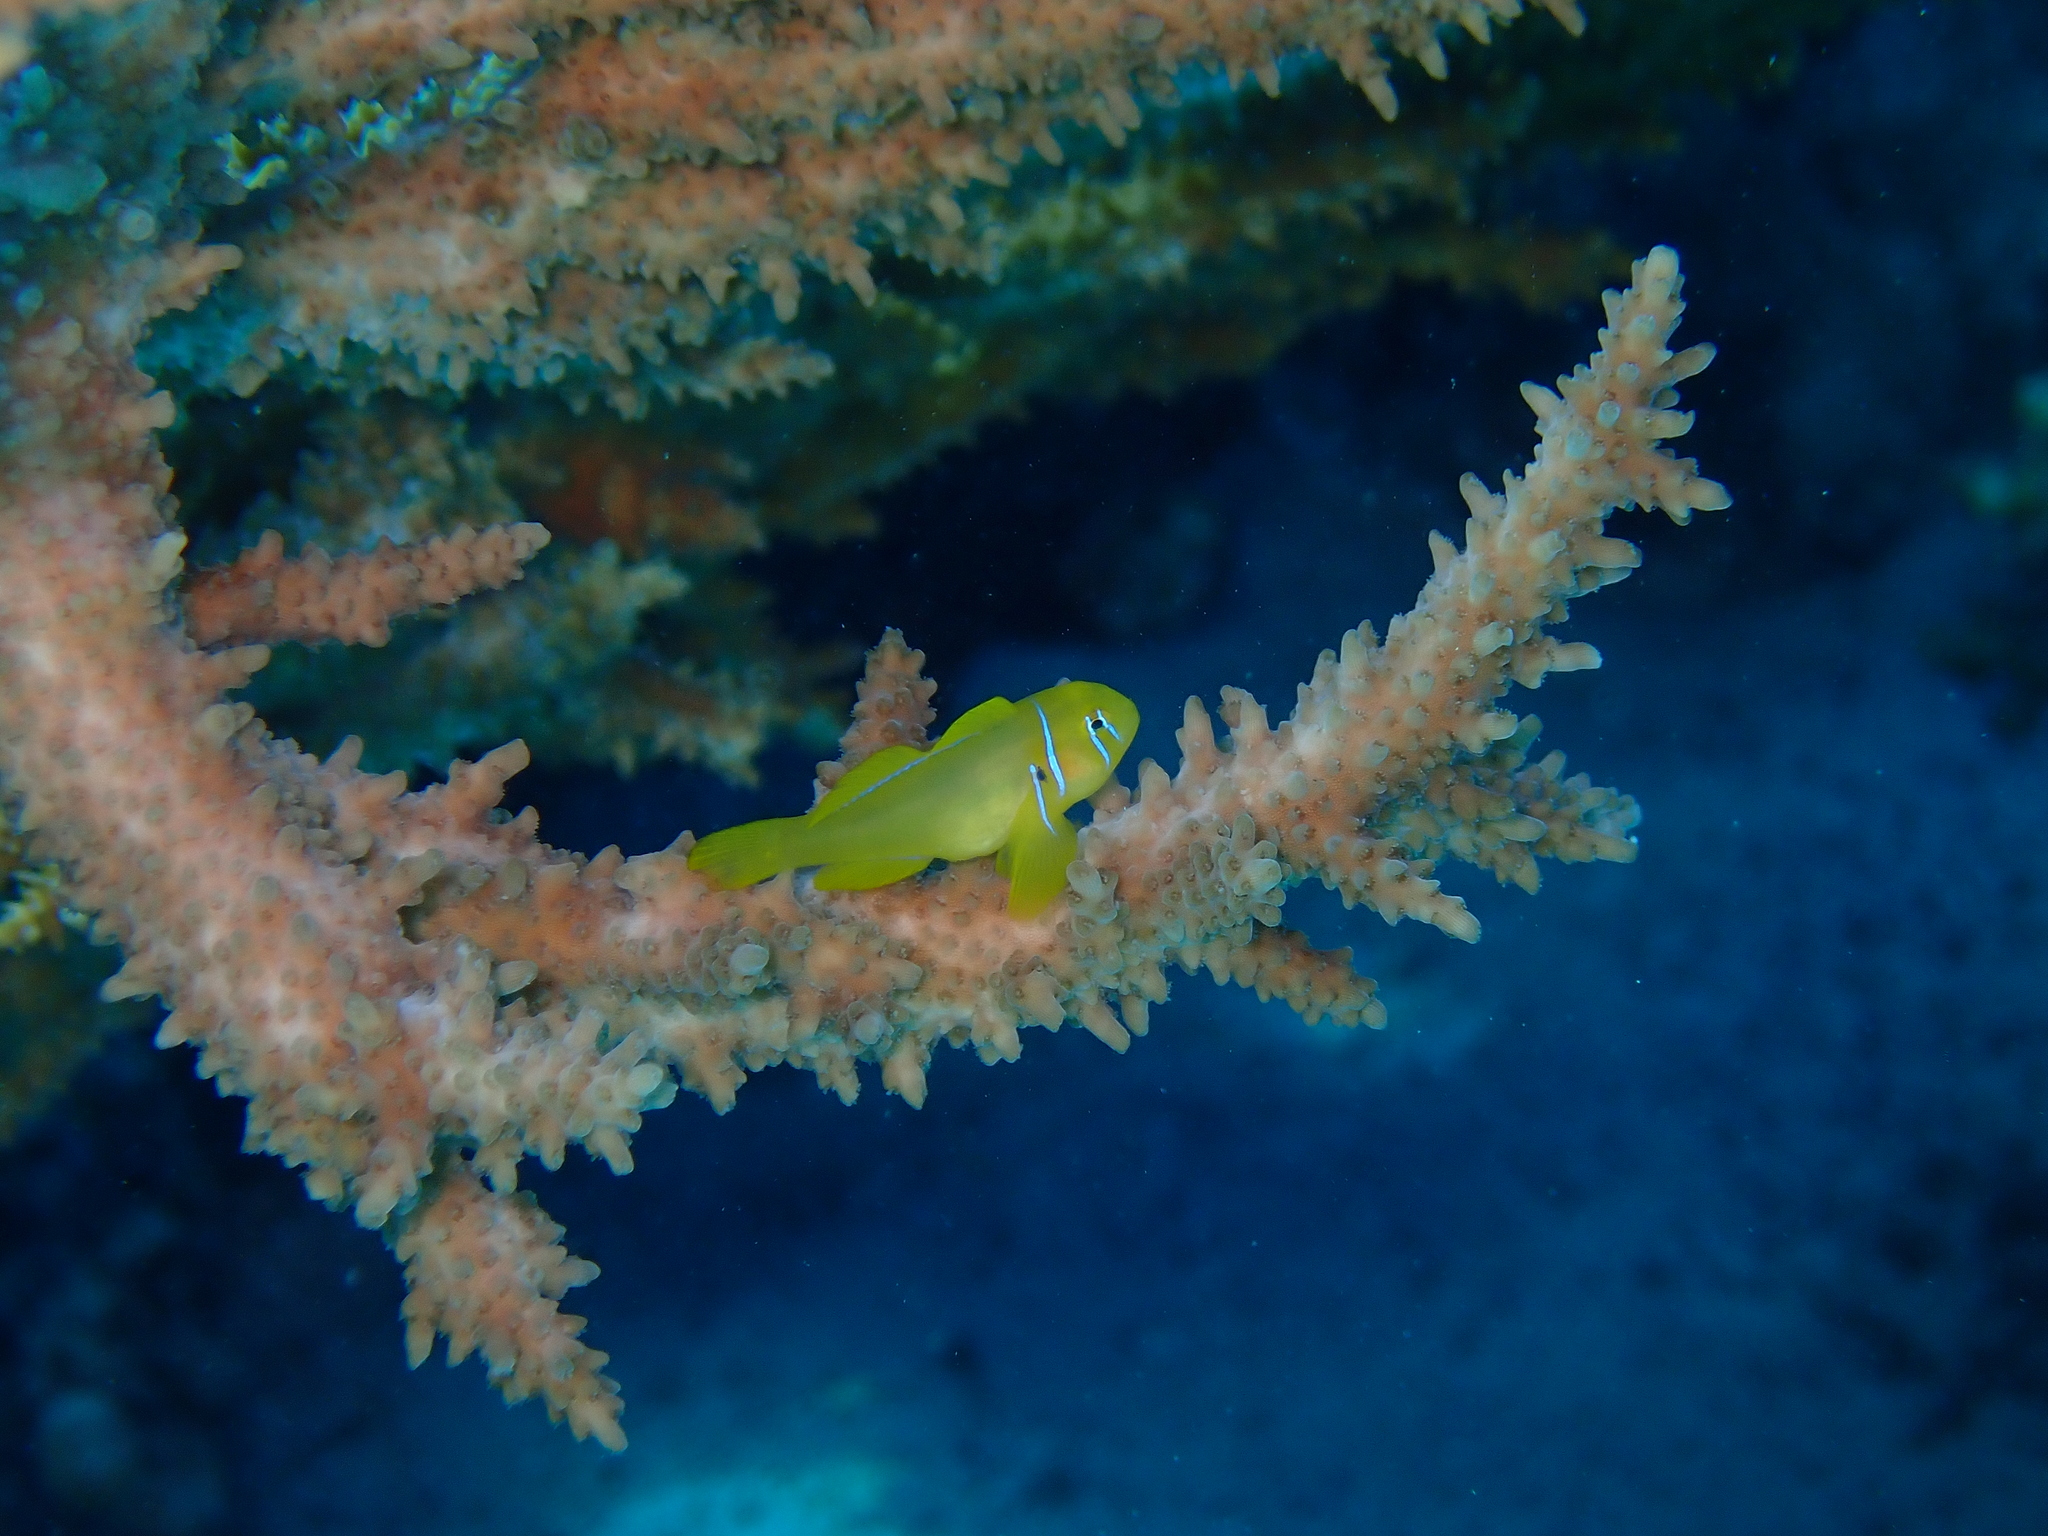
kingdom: Animalia
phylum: Chordata
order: Perciformes
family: Gobiidae
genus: Gobiodon
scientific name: Gobiodon citrinus
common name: Citron goby
